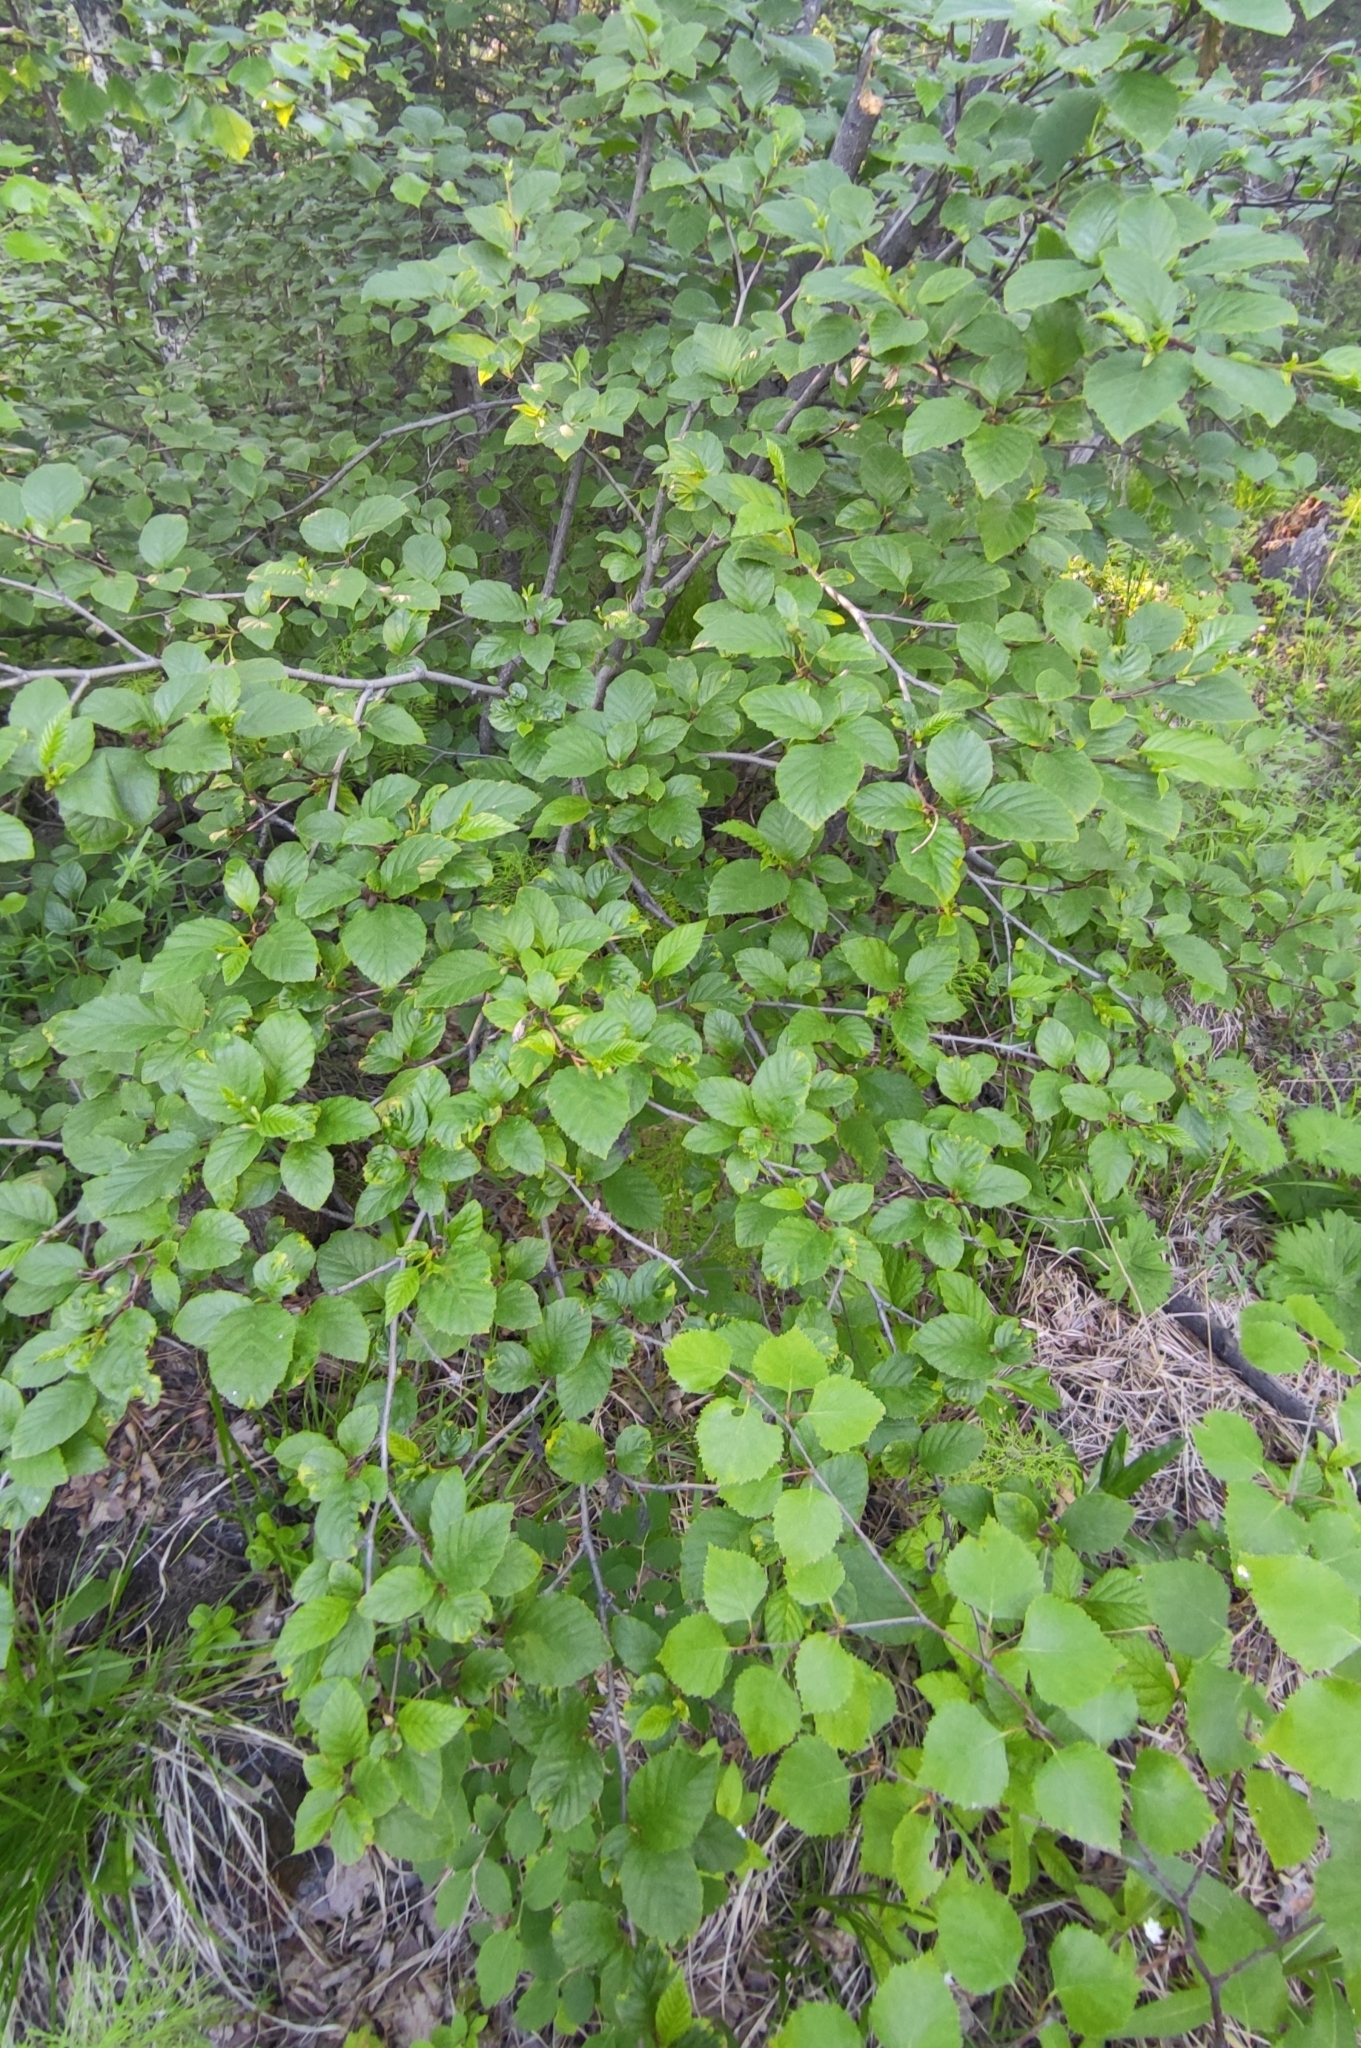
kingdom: Plantae
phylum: Tracheophyta
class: Magnoliopsida
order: Fagales
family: Betulaceae
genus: Alnus
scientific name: Alnus alnobetula
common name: Green alder
